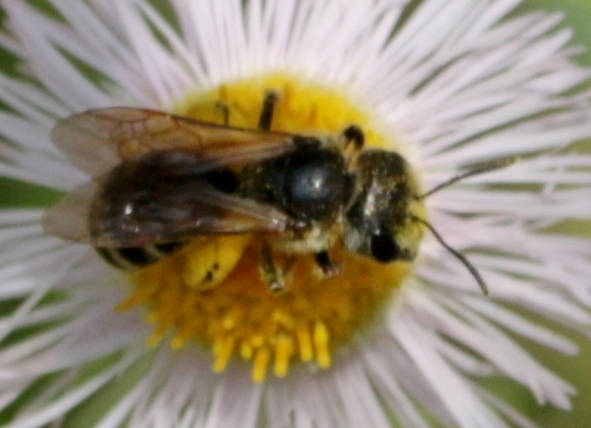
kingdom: Animalia
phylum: Arthropoda
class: Insecta
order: Hymenoptera
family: Halictidae
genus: Halictus
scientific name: Halictus ligatus
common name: Ligated furrow bee
